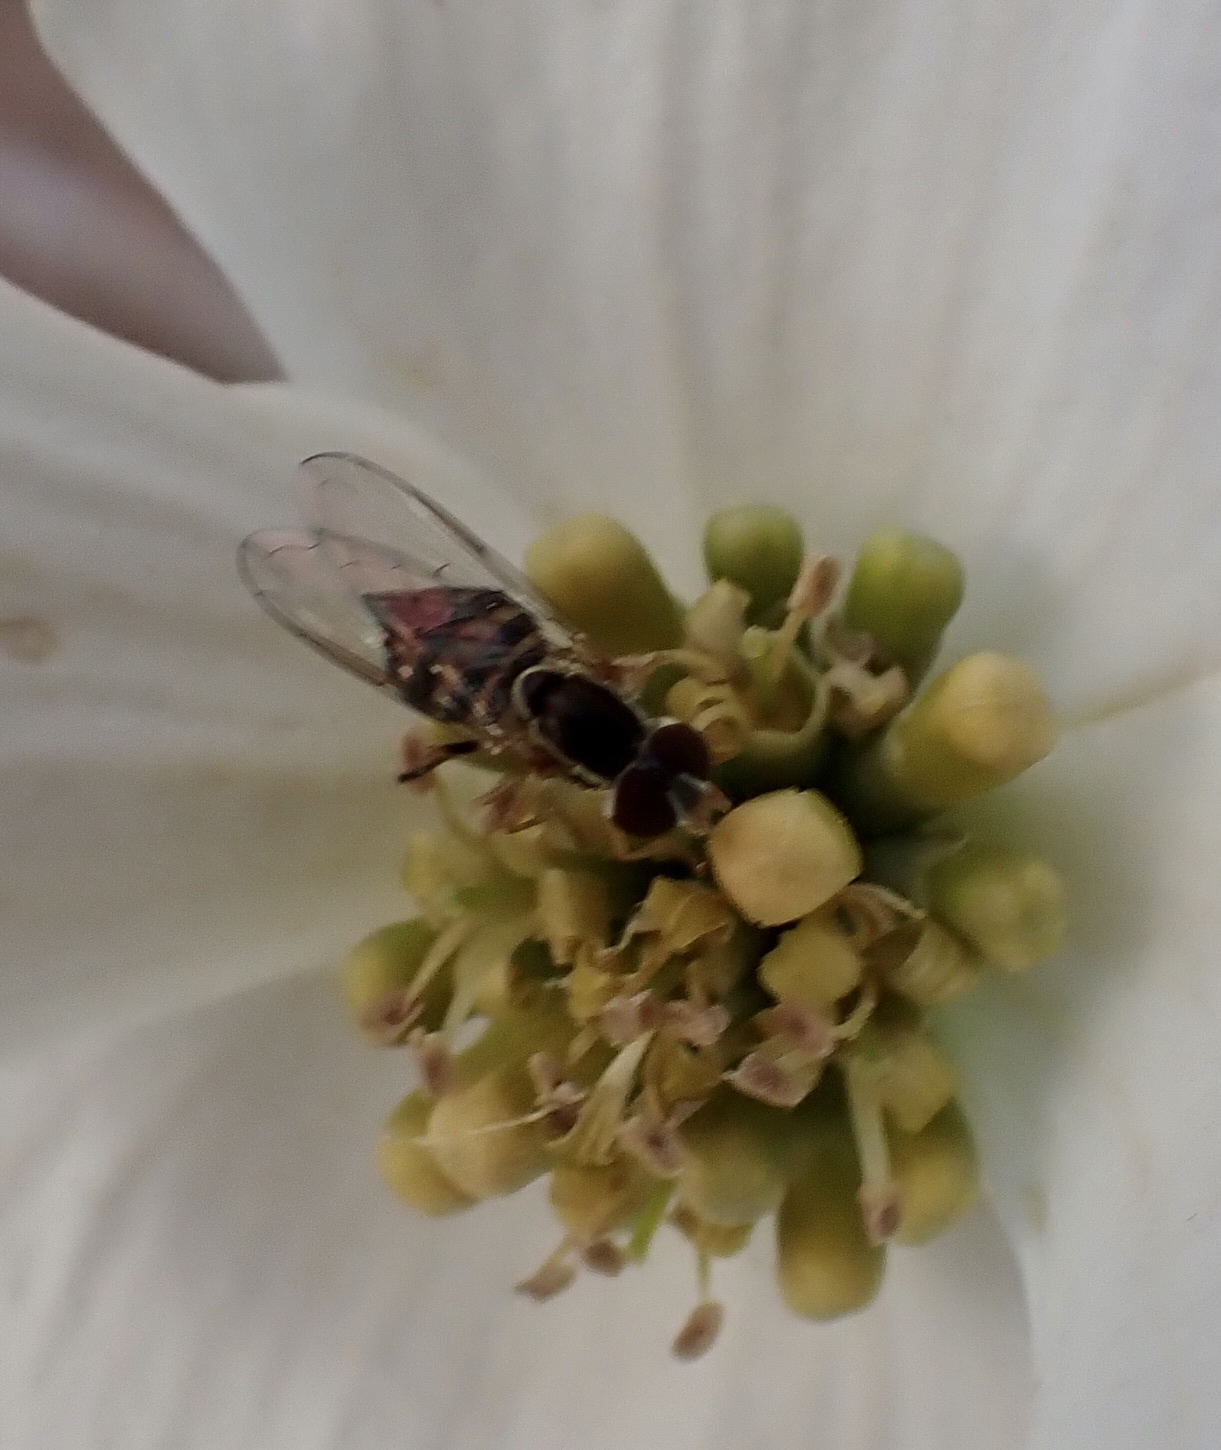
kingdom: Animalia
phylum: Arthropoda
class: Insecta
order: Diptera
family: Syrphidae
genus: Toxomerus
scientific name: Toxomerus geminatus
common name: Eastern calligrapher
